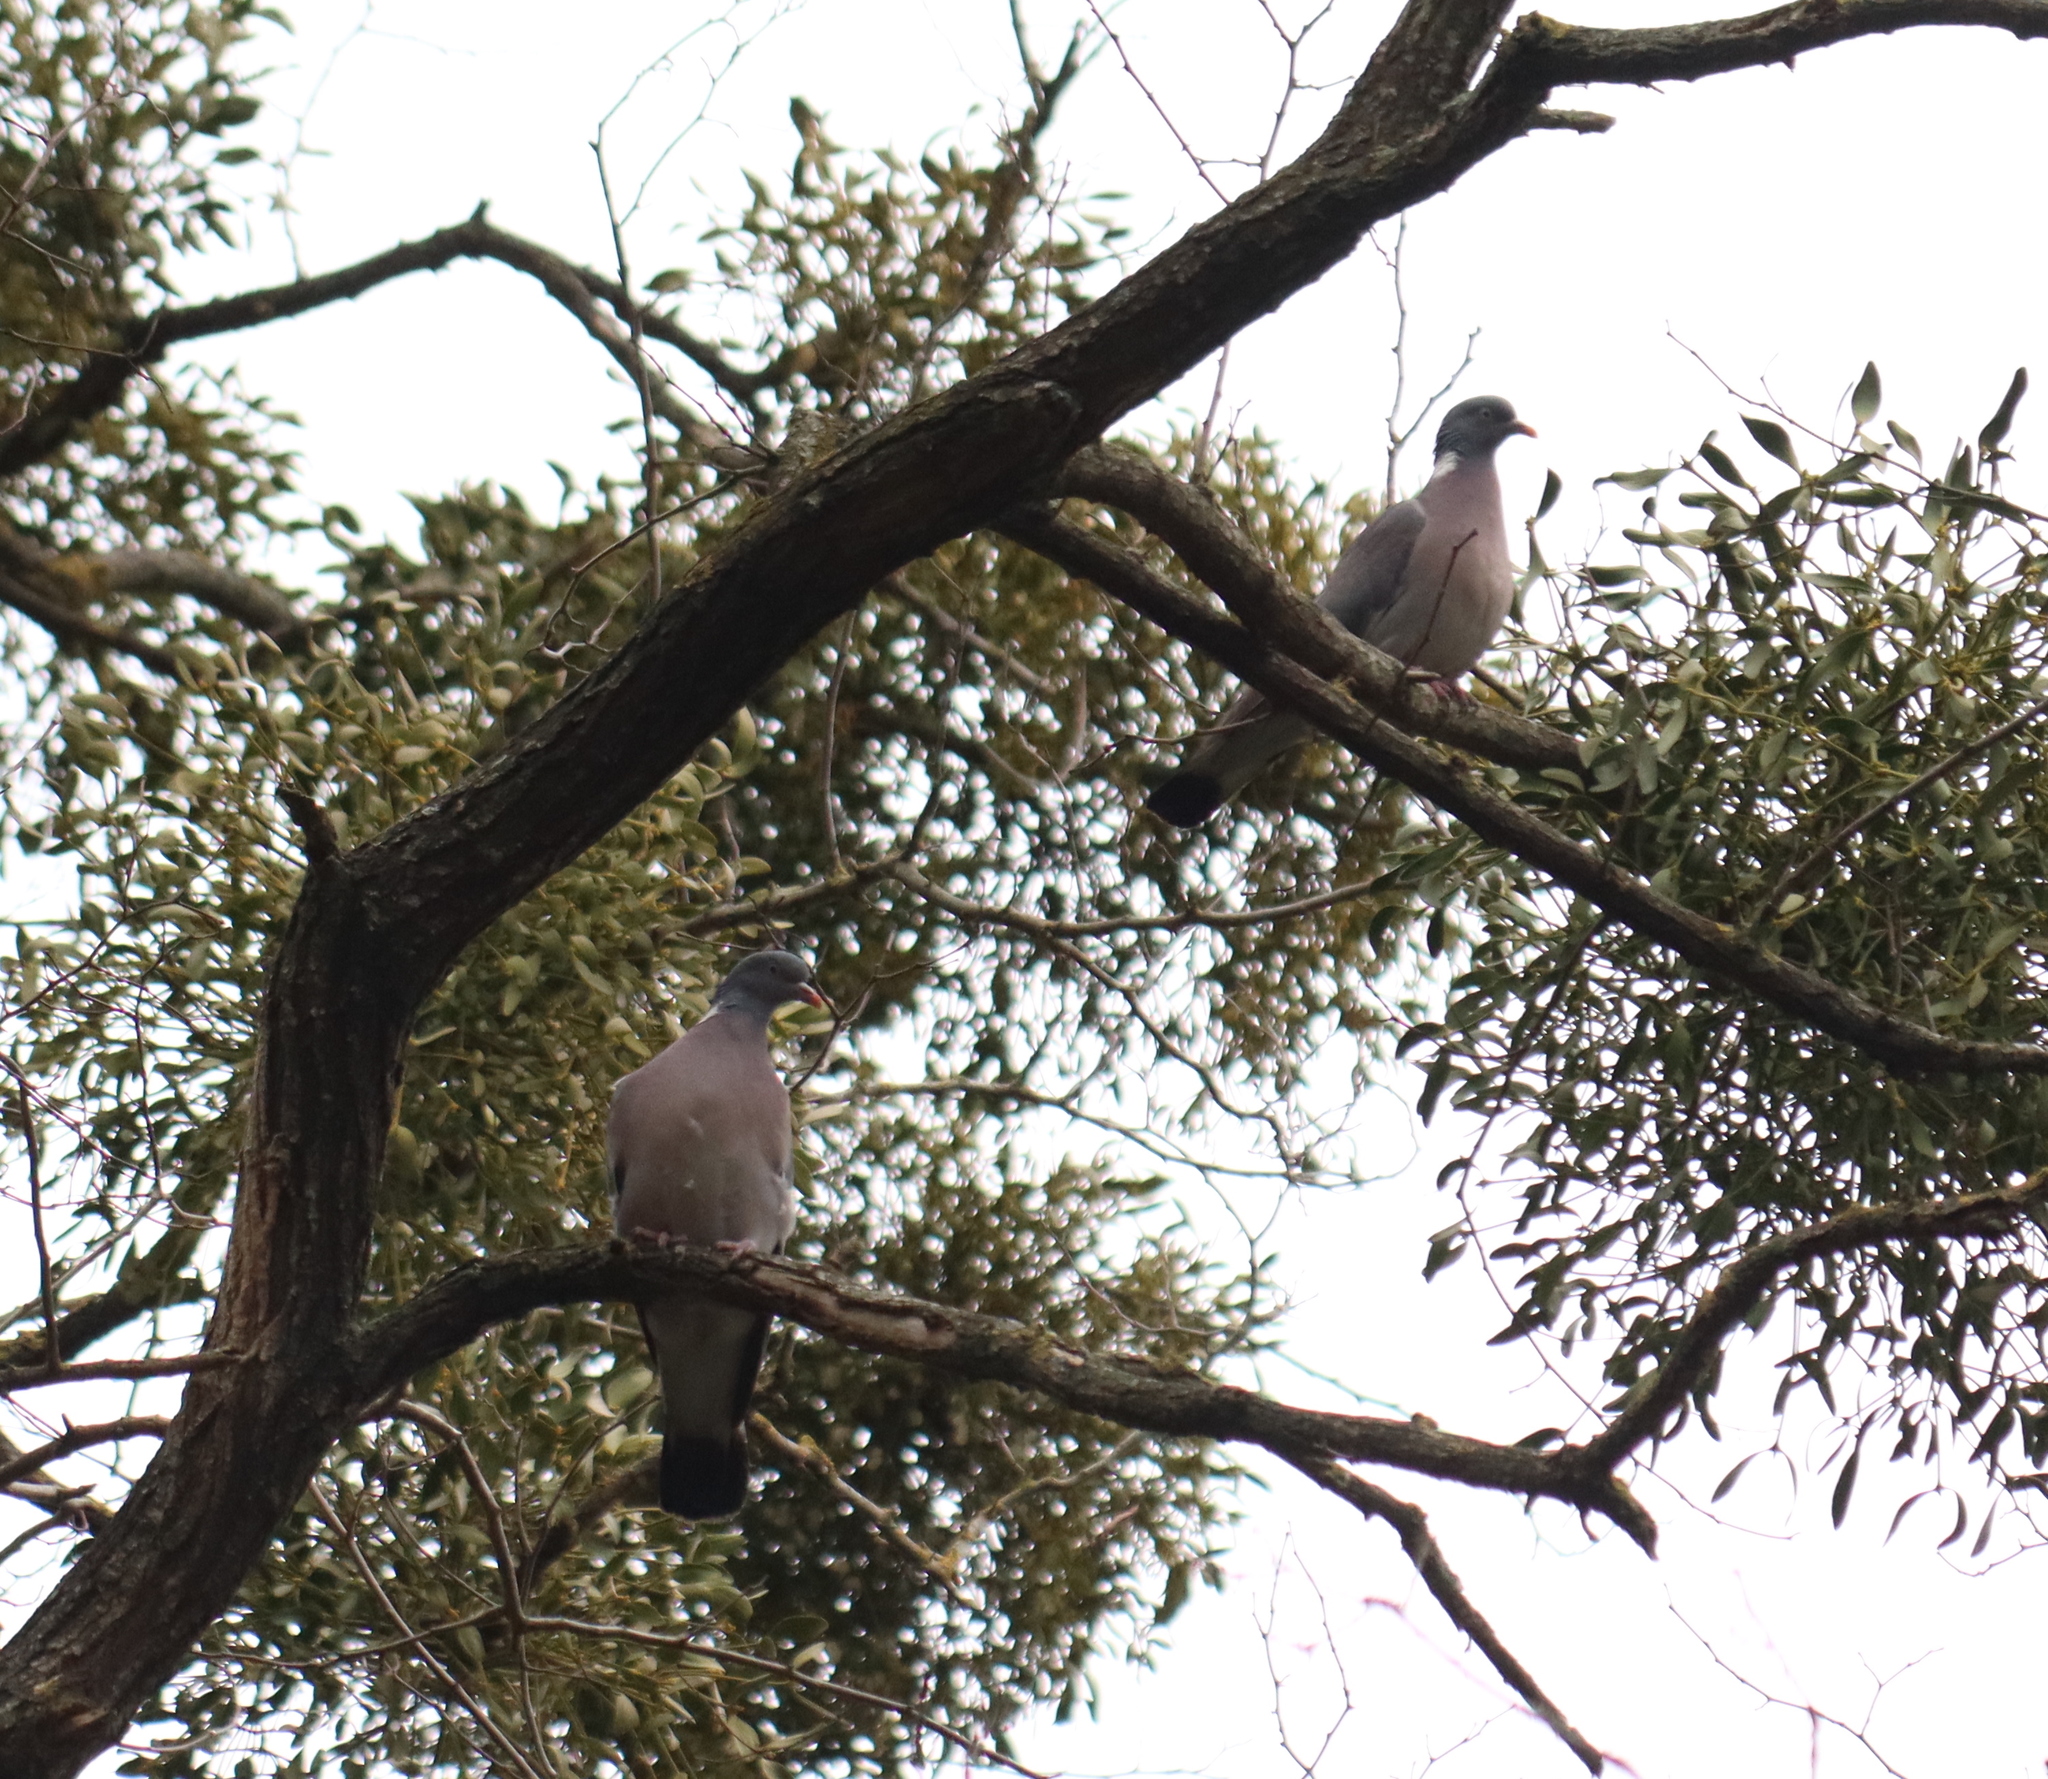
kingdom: Animalia
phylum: Chordata
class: Aves
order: Columbiformes
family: Columbidae
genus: Columba
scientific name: Columba palumbus
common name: Common wood pigeon
